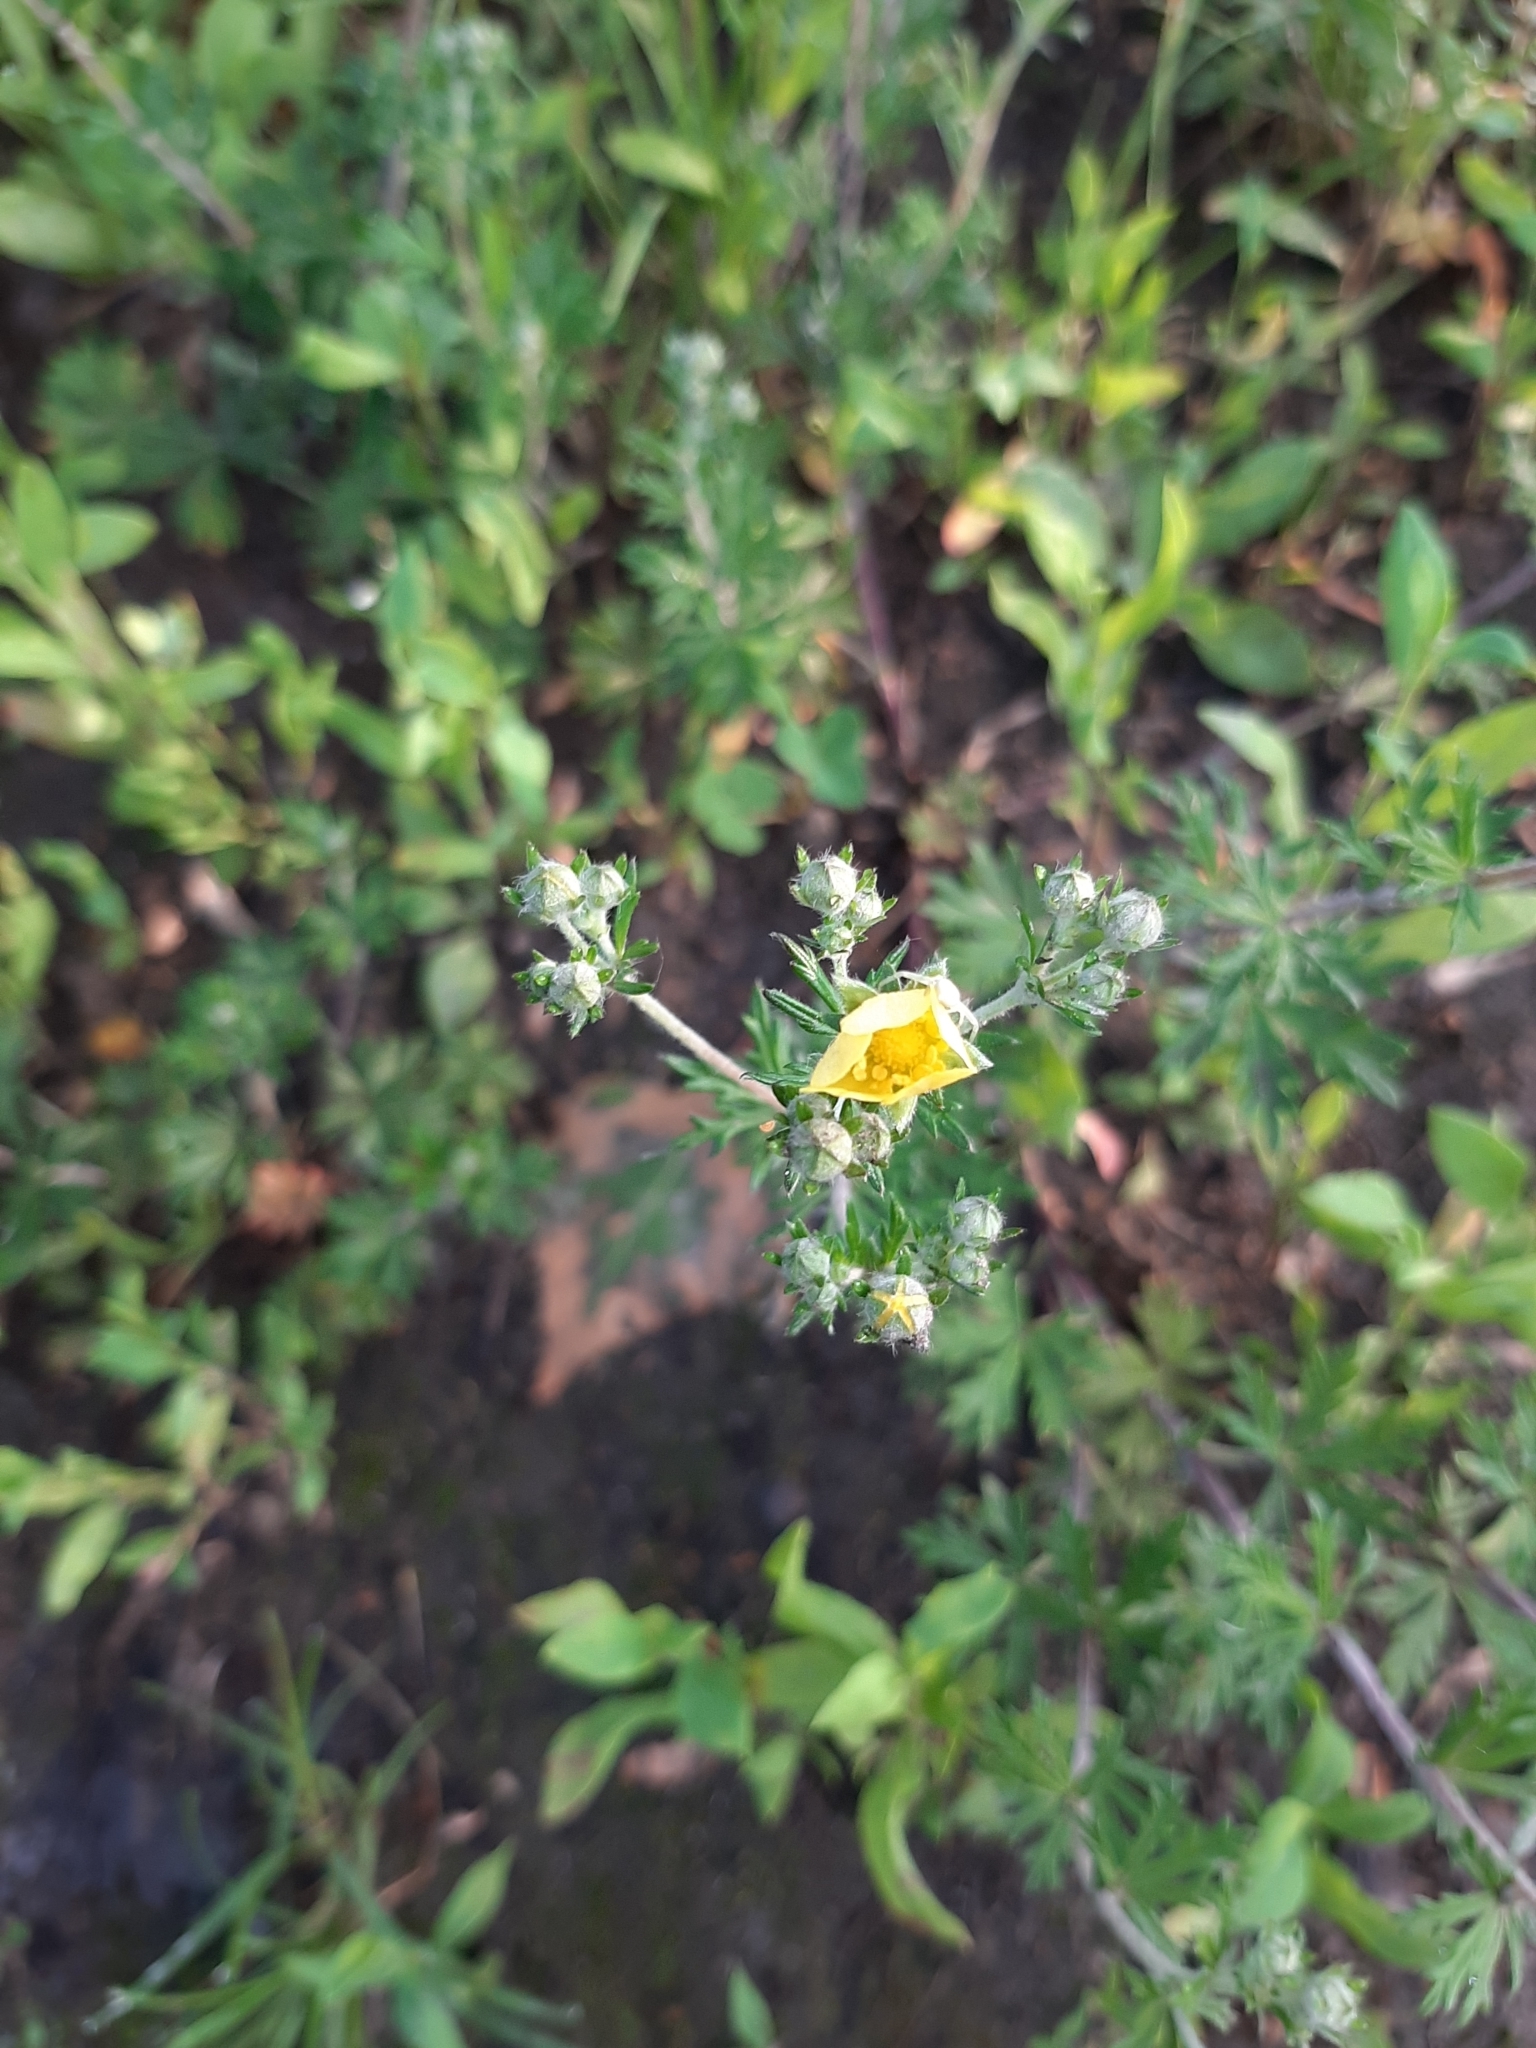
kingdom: Plantae
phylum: Tracheophyta
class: Magnoliopsida
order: Rosales
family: Rosaceae
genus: Potentilla
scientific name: Potentilla argentea
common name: Hoary cinquefoil
